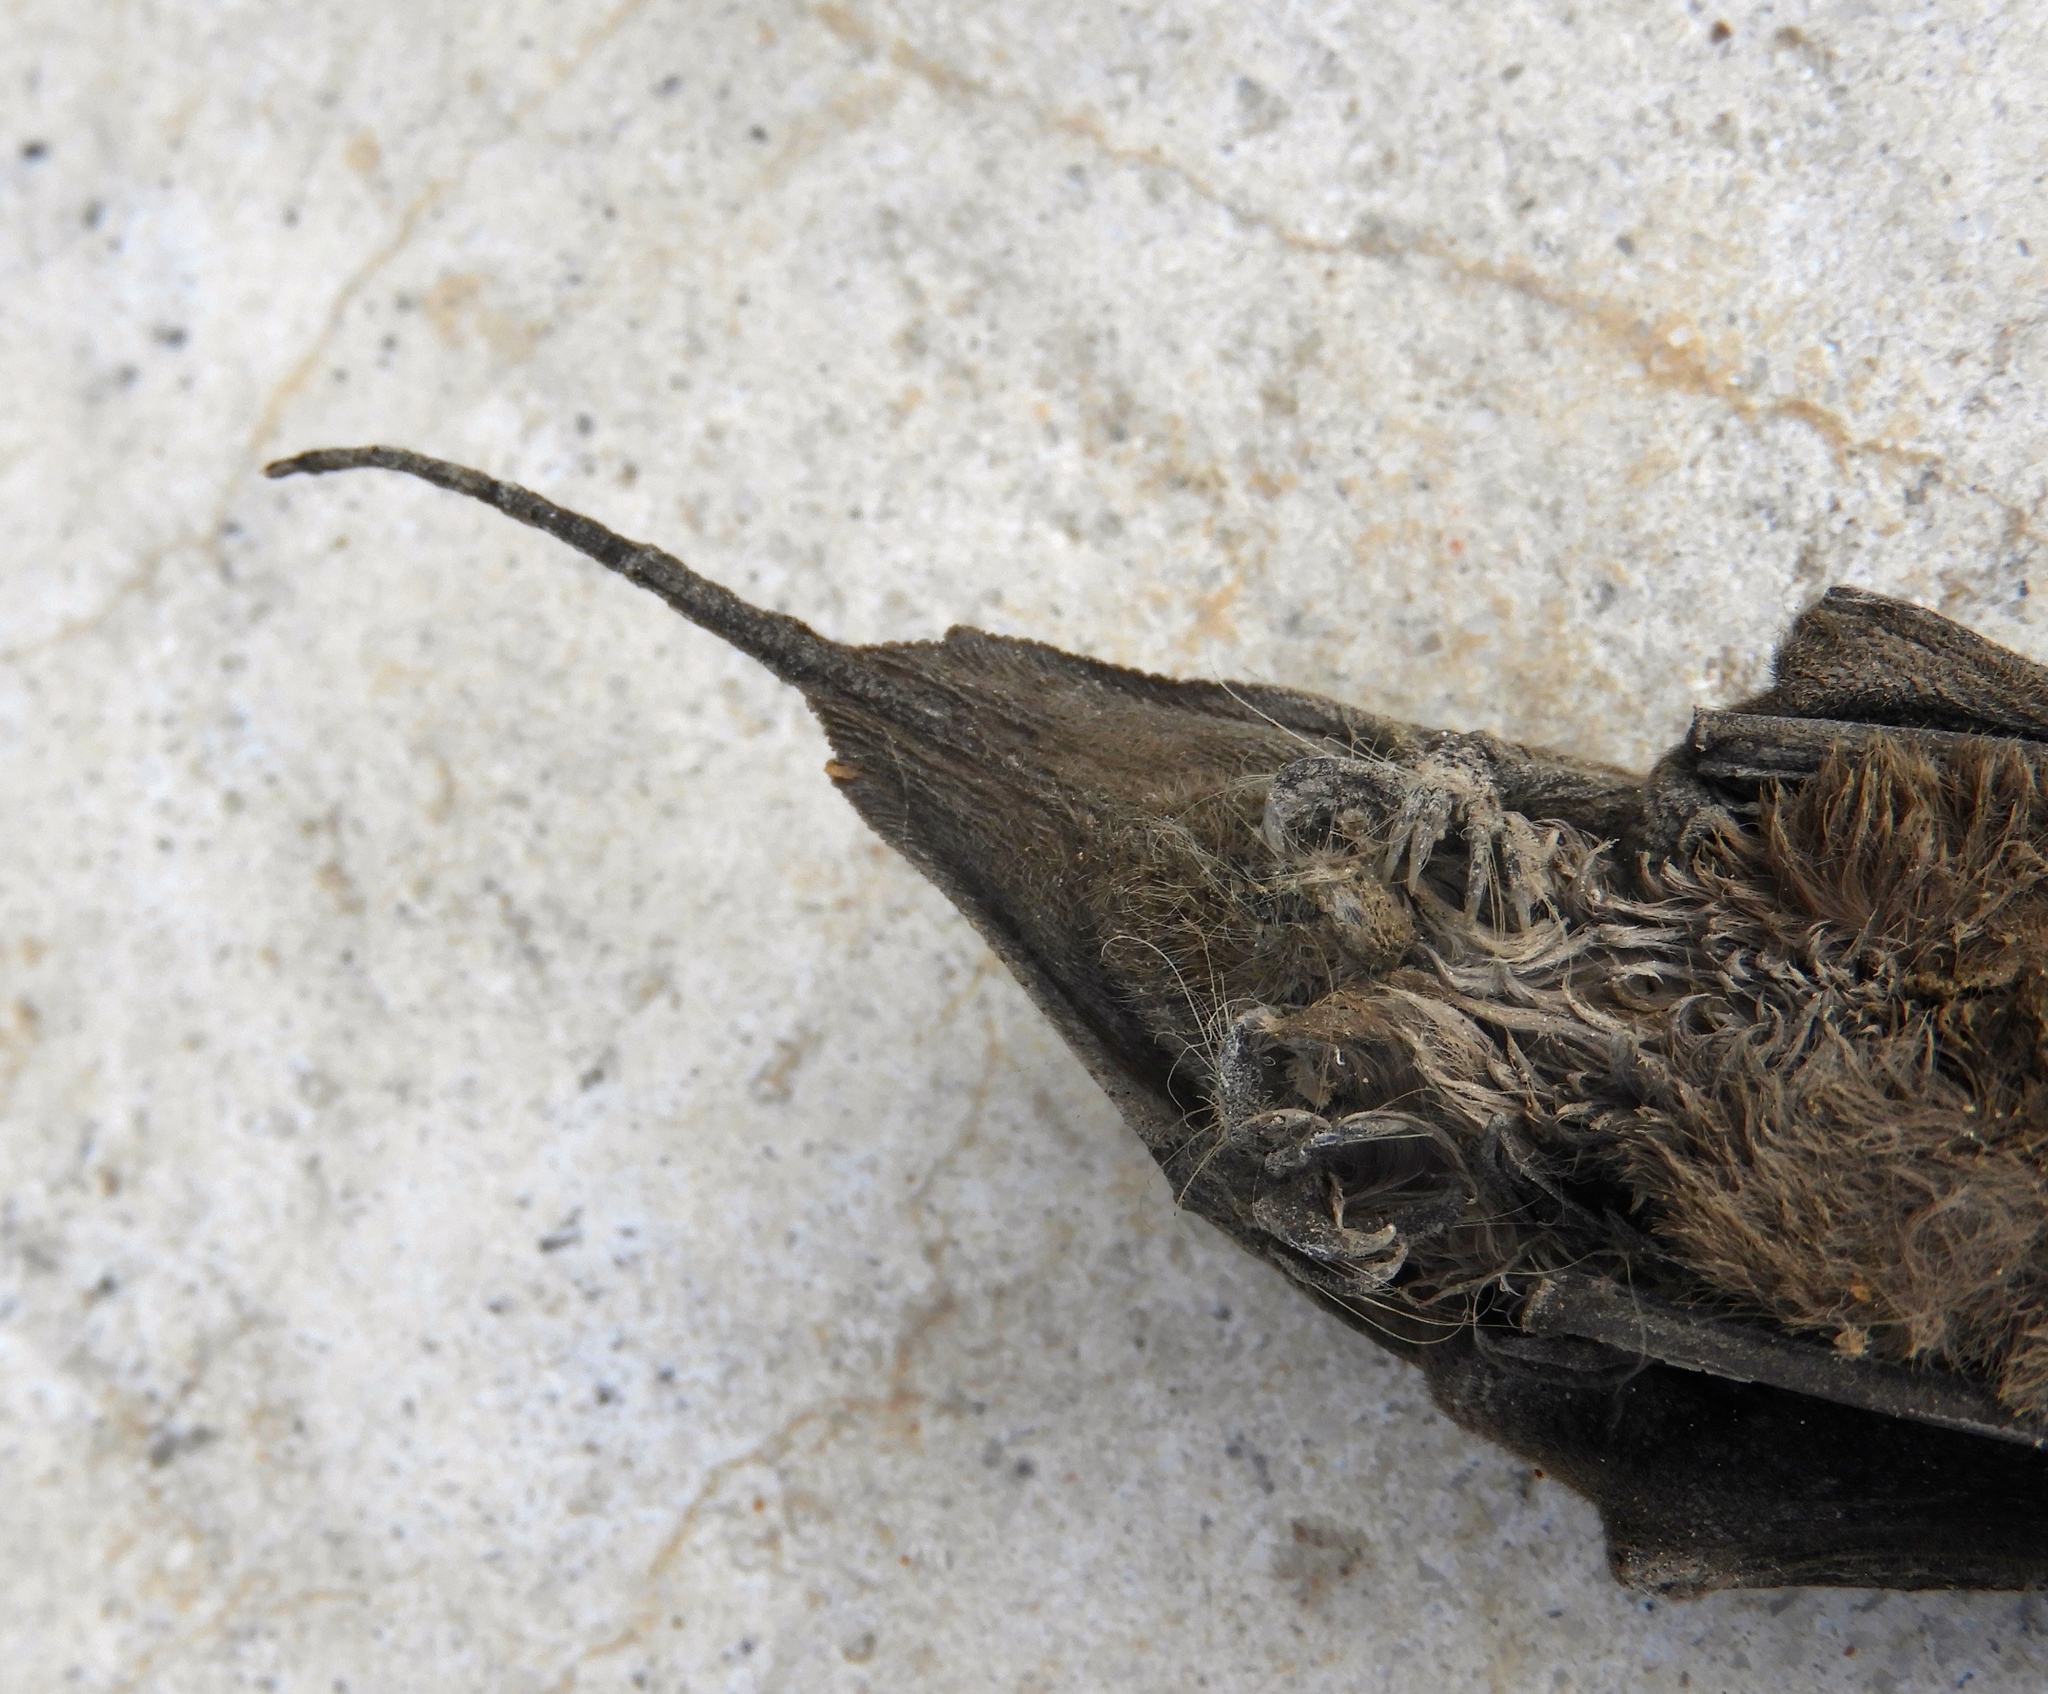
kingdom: Animalia
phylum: Chordata
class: Mammalia
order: Chiroptera
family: Molossidae
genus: Nyctinomops
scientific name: Nyctinomops macrotis
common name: Big free-tailed bat
